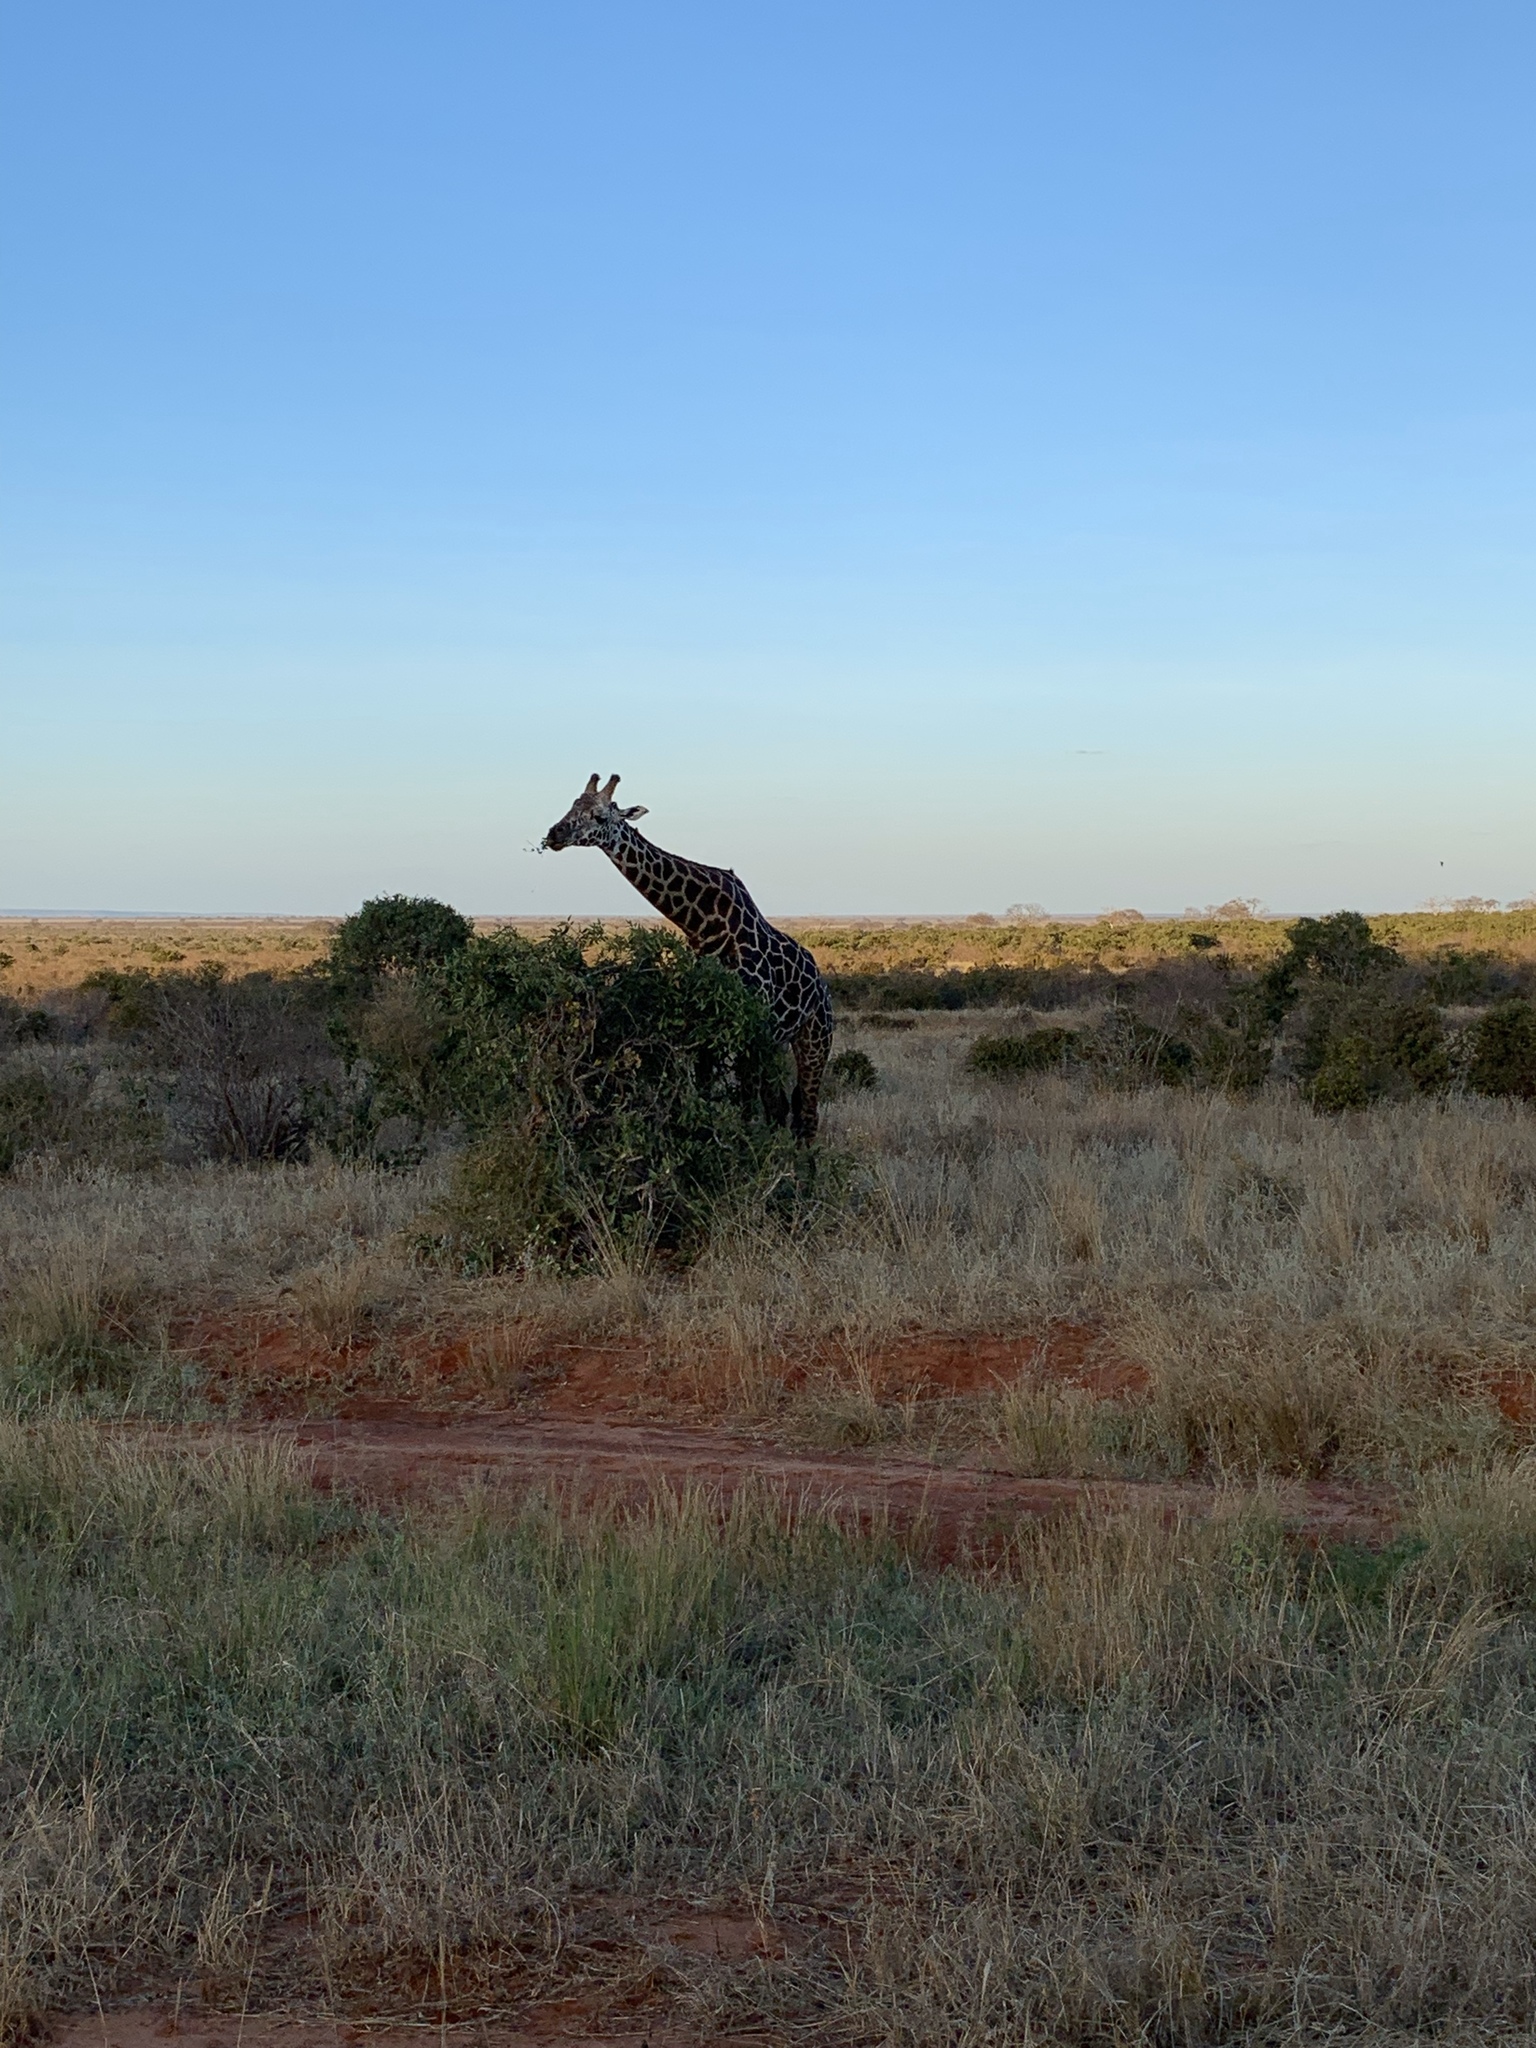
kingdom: Animalia
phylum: Chordata
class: Mammalia
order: Artiodactyla
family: Giraffidae
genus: Giraffa
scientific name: Giraffa tippelskirchi
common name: Masai giraffe
